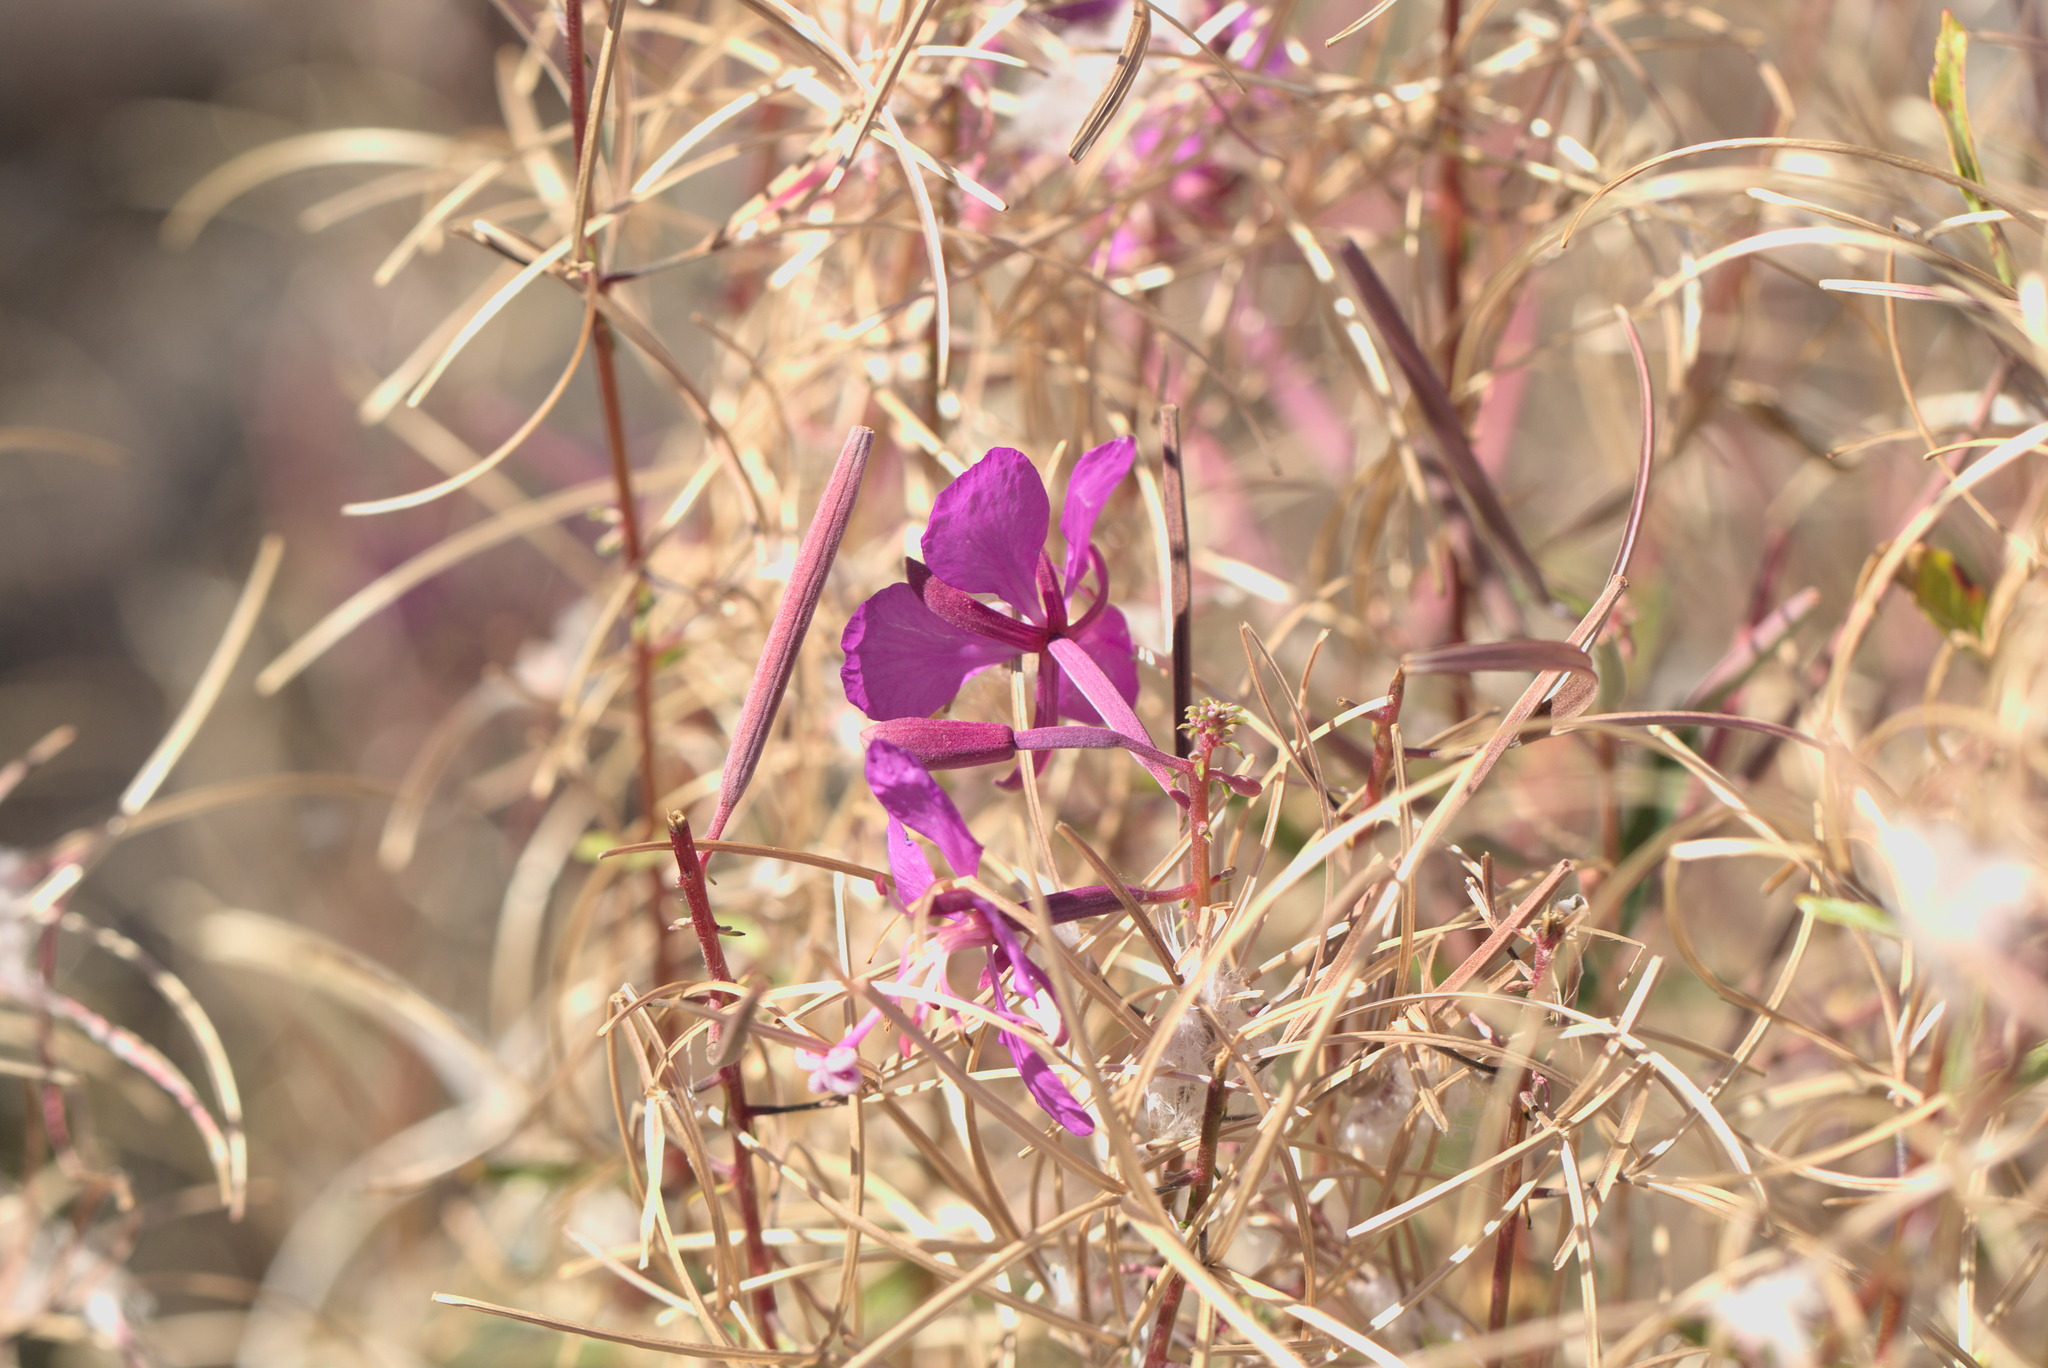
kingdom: Plantae
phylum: Tracheophyta
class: Magnoliopsida
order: Myrtales
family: Onagraceae
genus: Chamaenerion
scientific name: Chamaenerion angustifolium
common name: Fireweed
